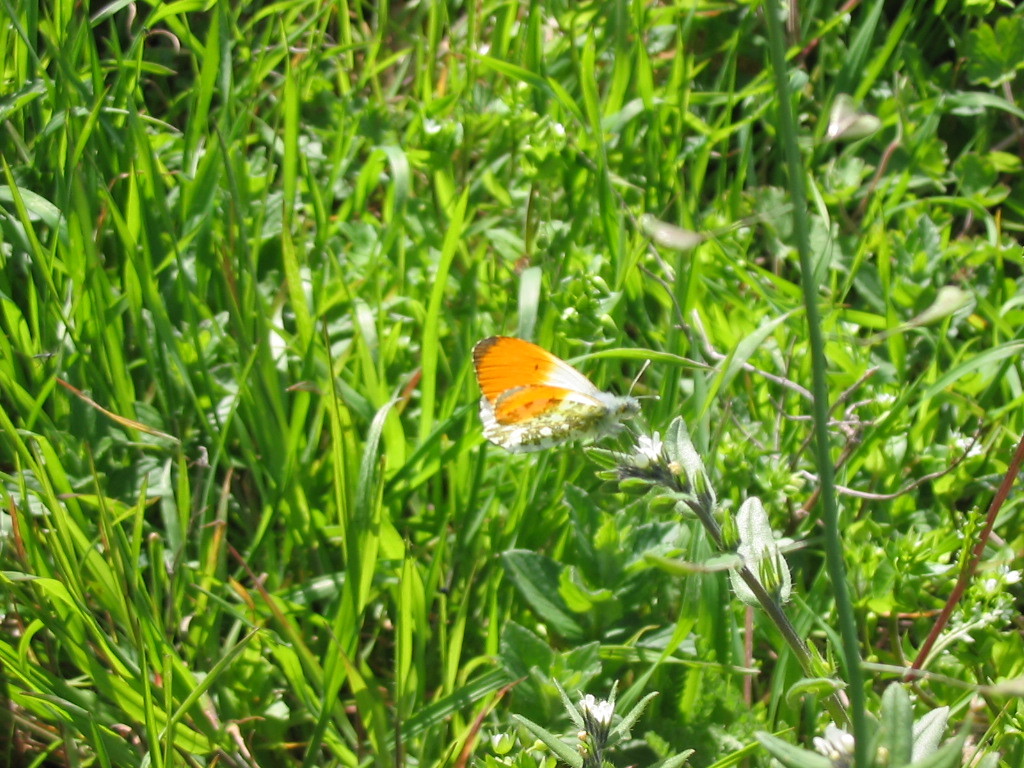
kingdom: Animalia
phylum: Arthropoda
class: Insecta
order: Lepidoptera
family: Pieridae
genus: Anthocharis
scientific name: Anthocharis cardamines
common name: Orange-tip
